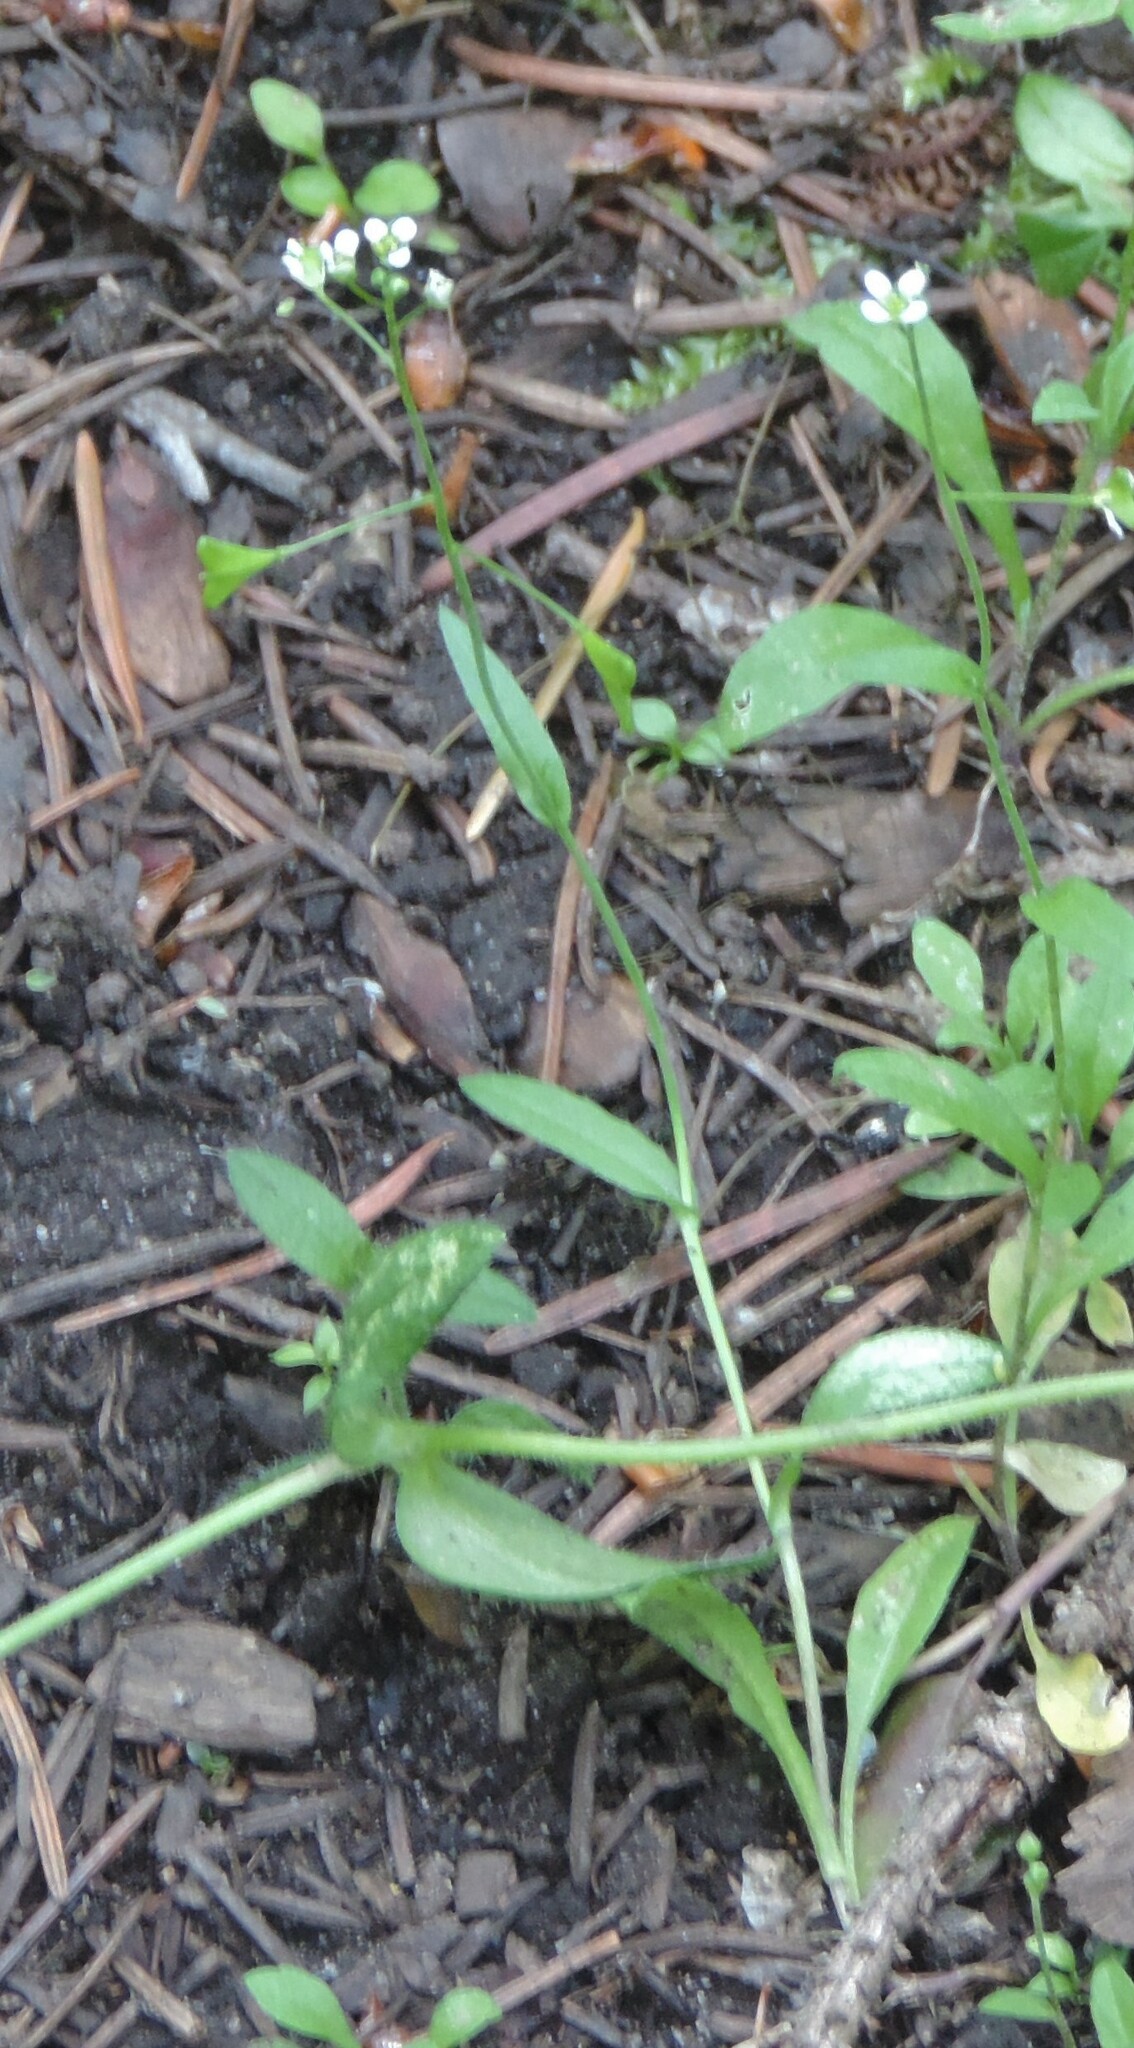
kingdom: Plantae
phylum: Tracheophyta
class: Magnoliopsida
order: Brassicales
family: Brassicaceae
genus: Capsella
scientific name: Capsella bursa-pastoris
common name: Shepherd's purse
